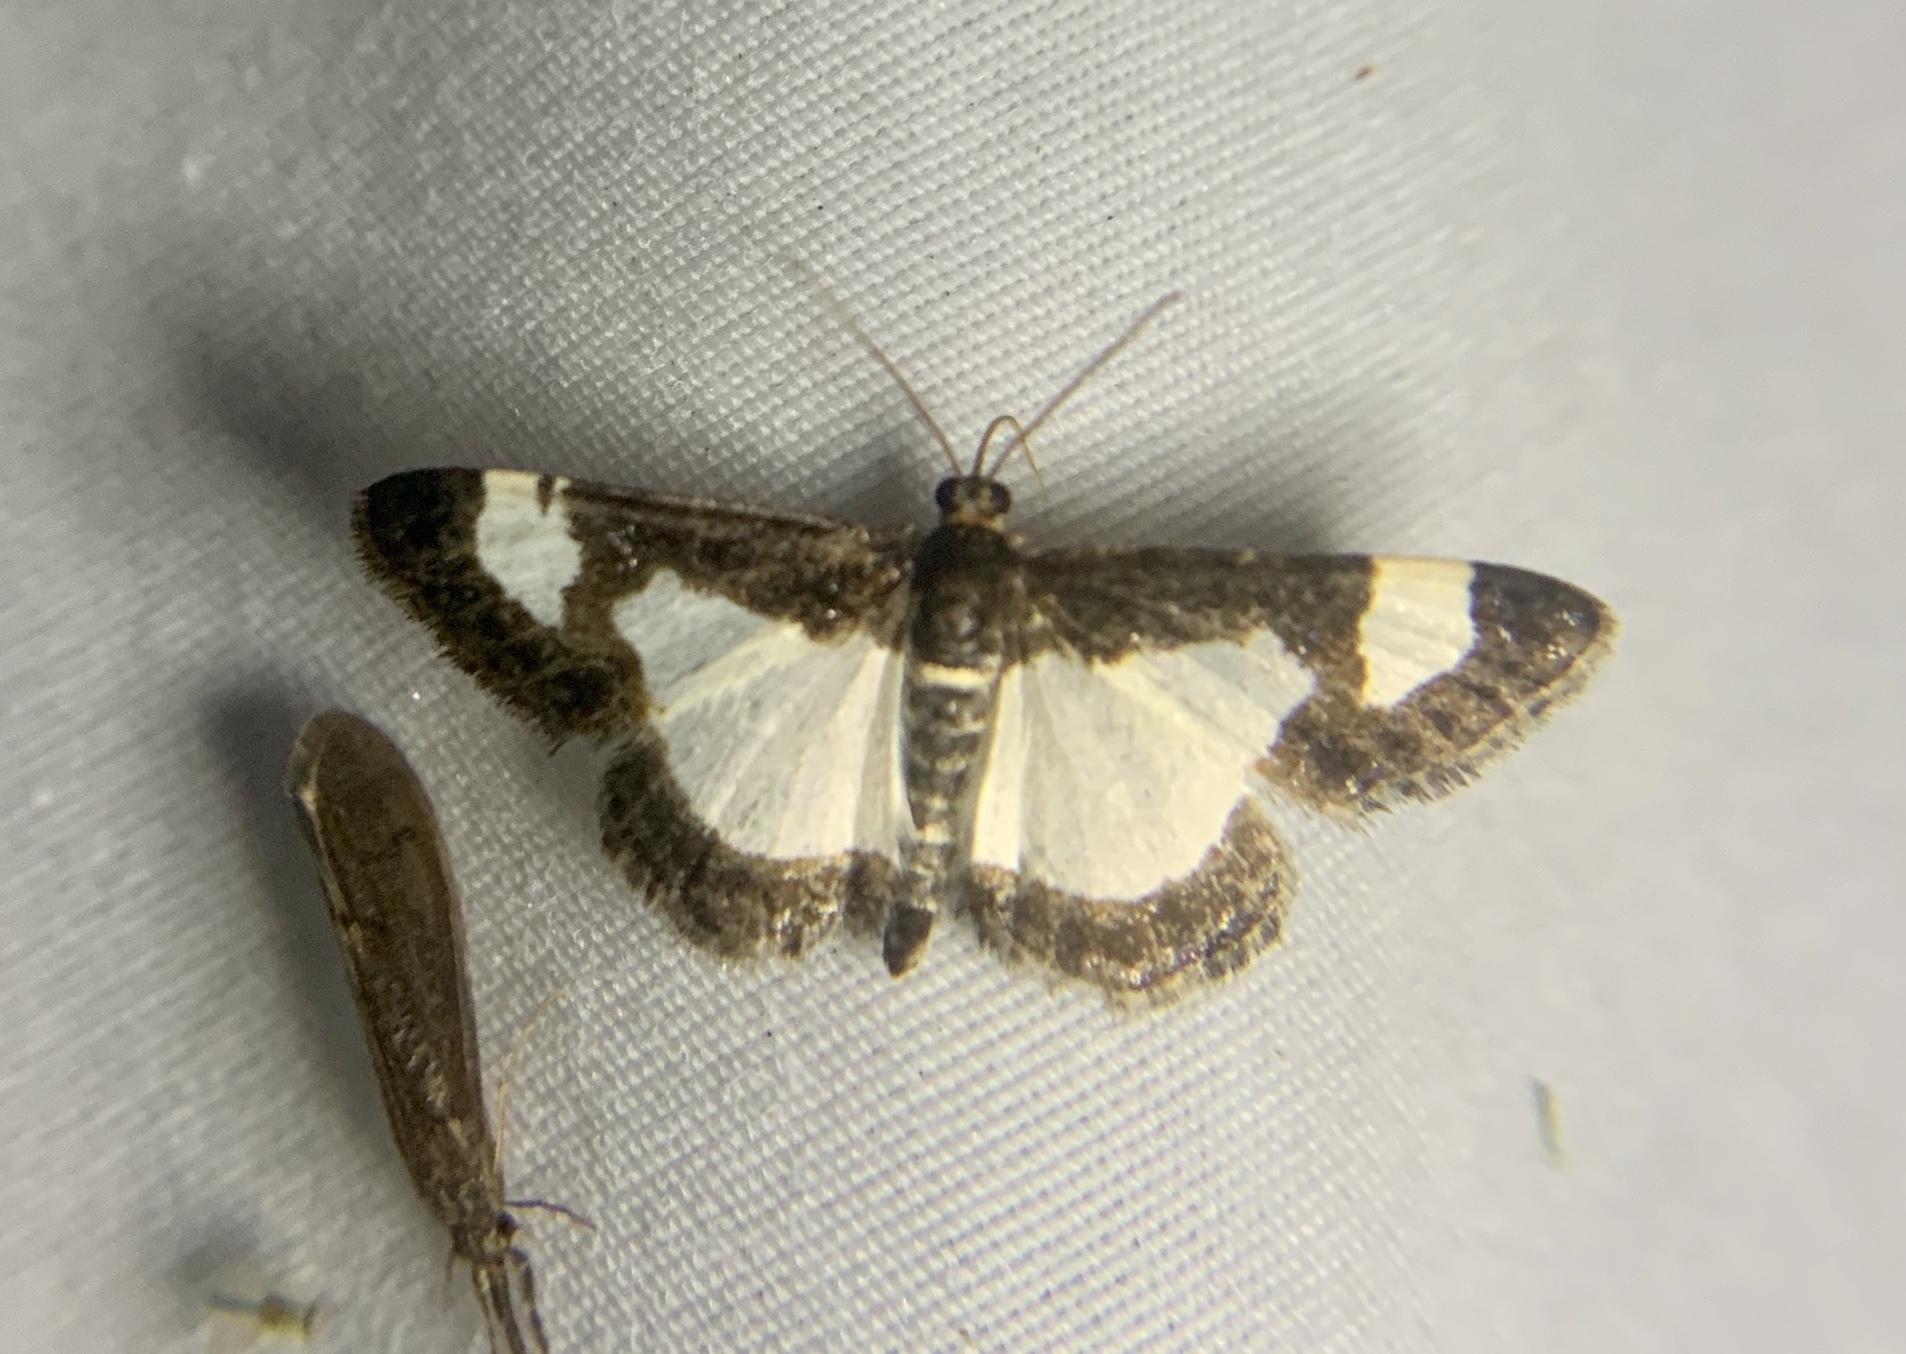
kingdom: Animalia
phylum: Arthropoda
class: Insecta
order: Lepidoptera
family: Geometridae
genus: Heliomata
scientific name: Heliomata cycladata
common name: Common spring moth
